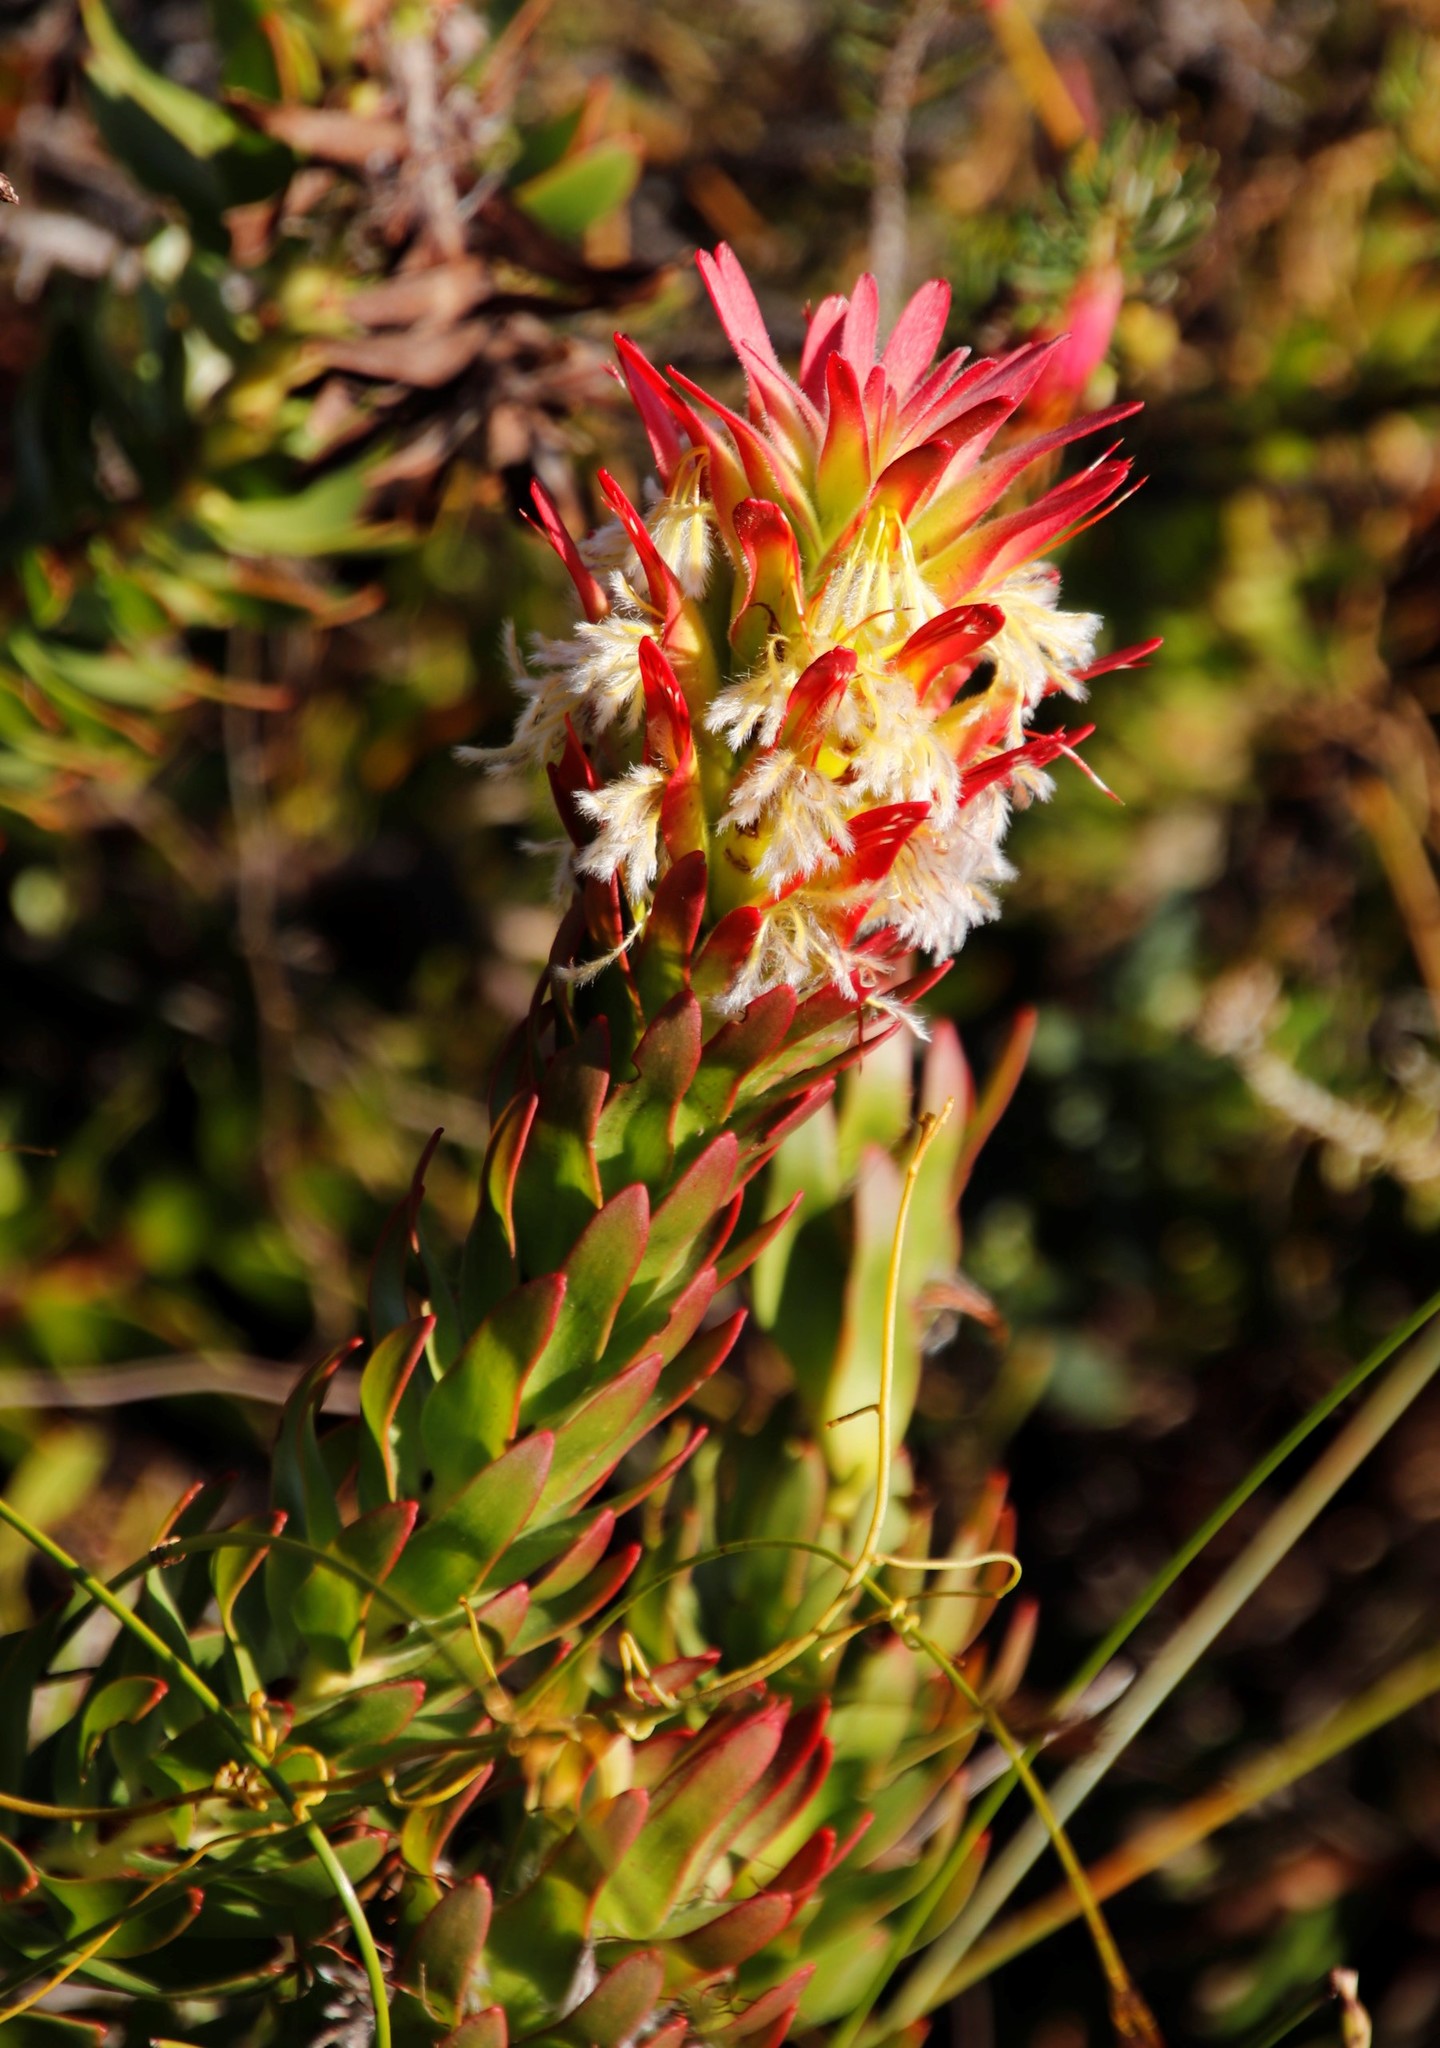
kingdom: Plantae
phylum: Tracheophyta
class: Magnoliopsida
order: Proteales
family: Proteaceae
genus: Mimetes
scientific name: Mimetes cucullatus
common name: Common pagoda
